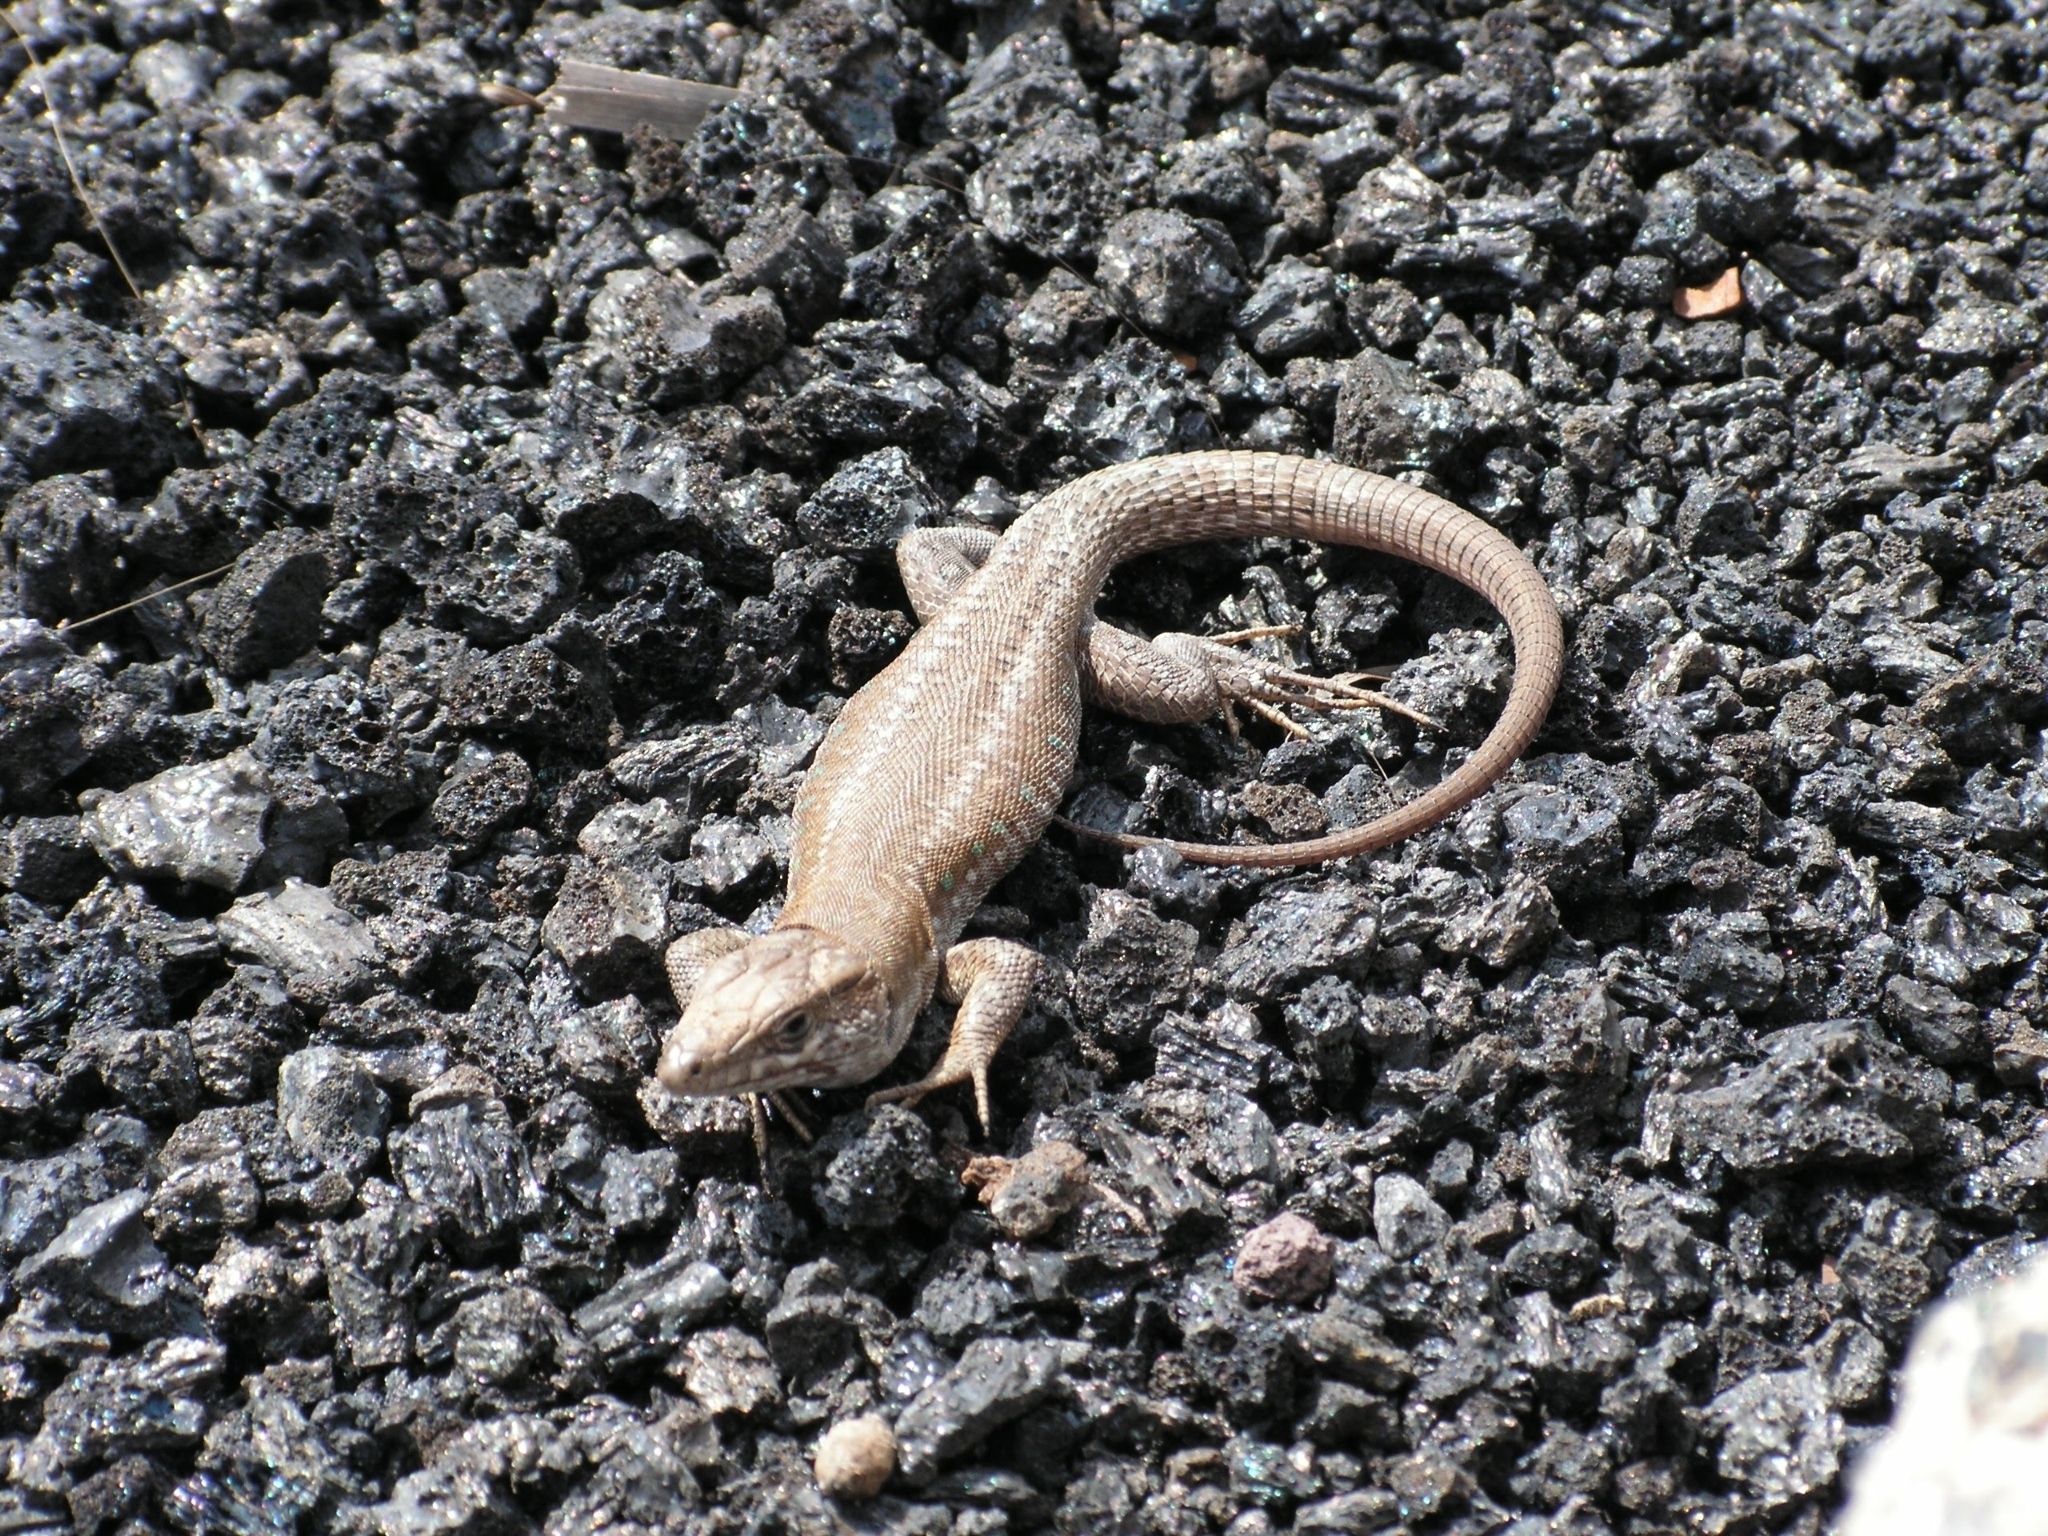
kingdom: Animalia
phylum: Chordata
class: Squamata
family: Lacertidae
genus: Gallotia
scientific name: Gallotia atlantica
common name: Atlantic lizard
